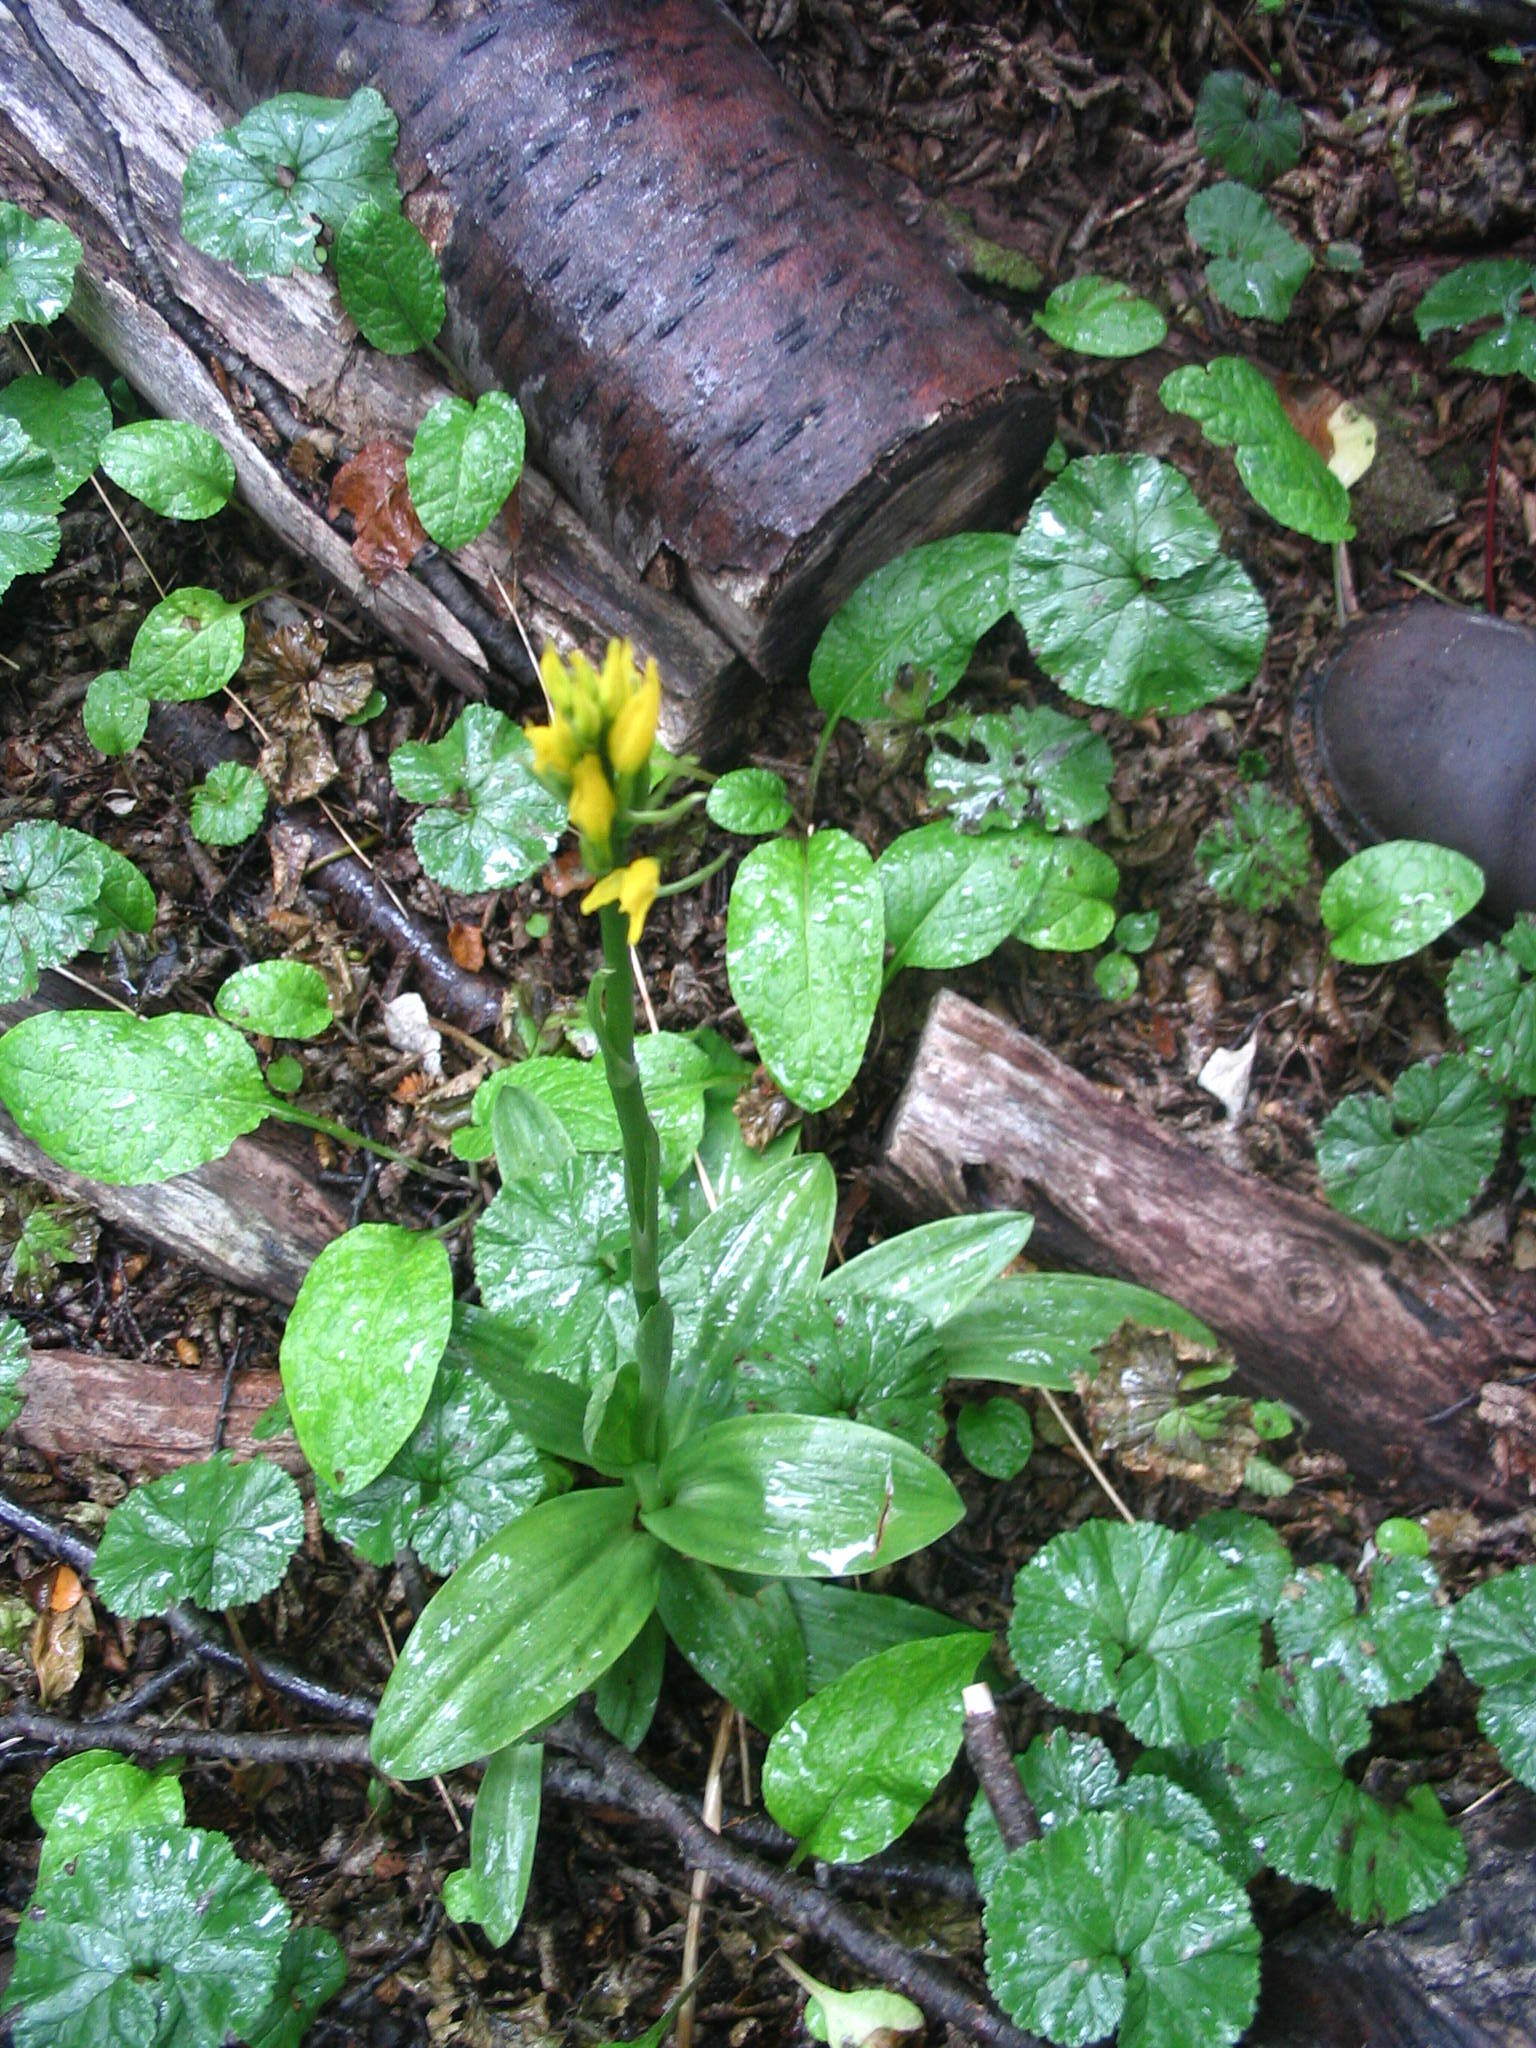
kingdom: Plantae
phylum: Tracheophyta
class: Liliopsida
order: Asparagales
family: Orchidaceae
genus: Gavilea
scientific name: Gavilea lutea
